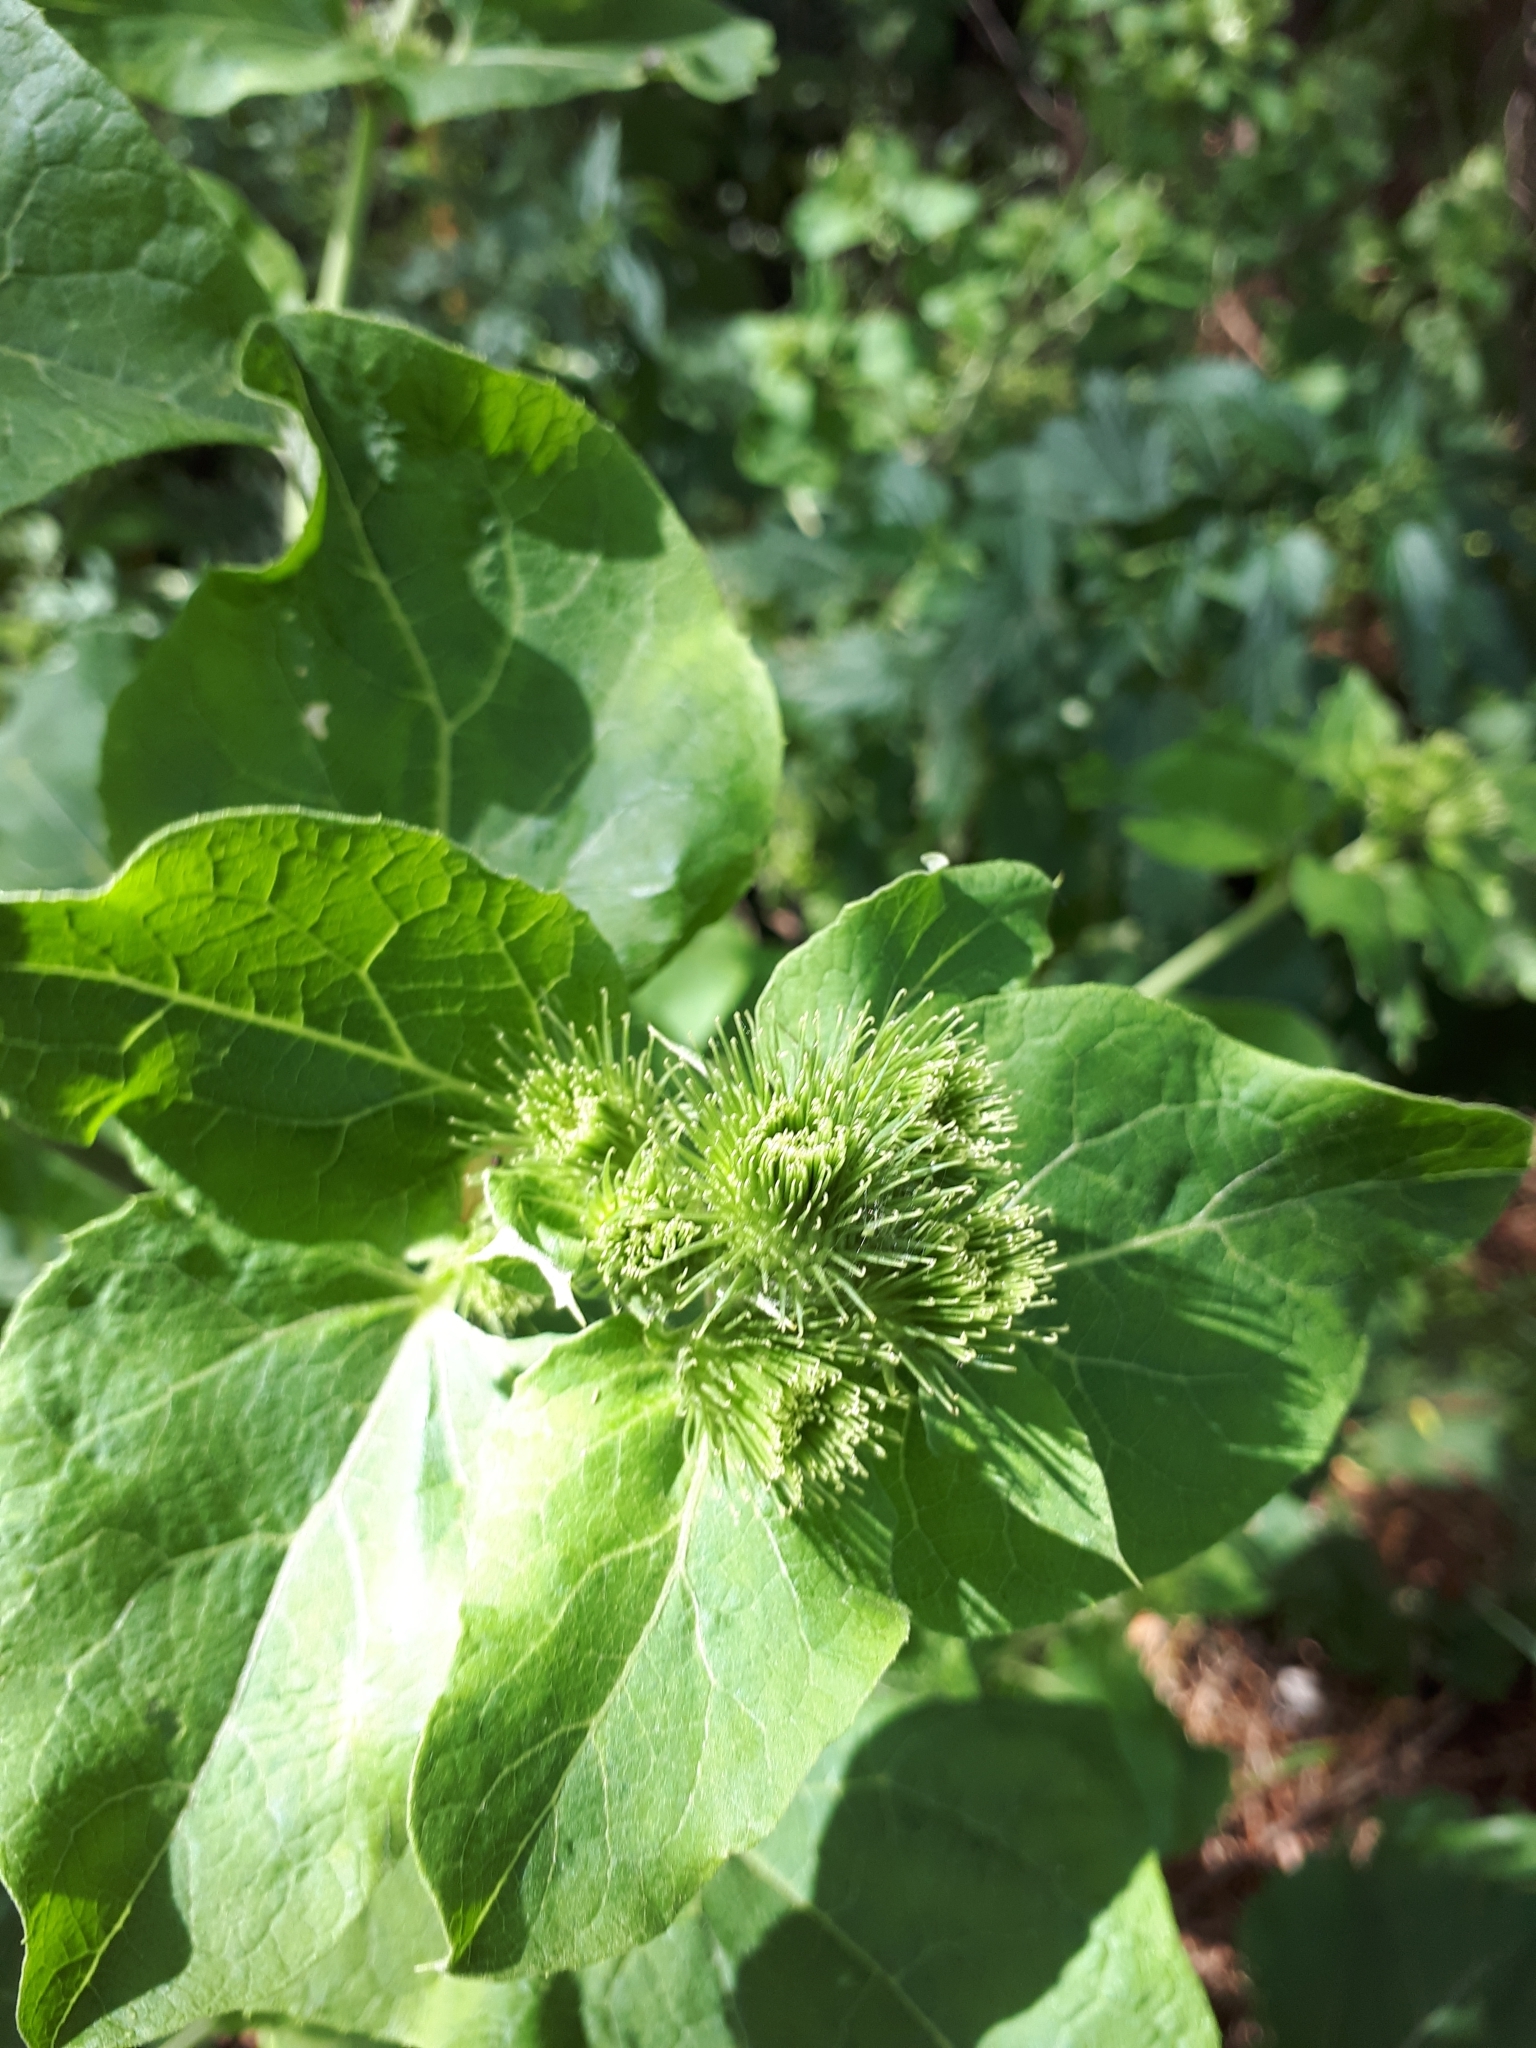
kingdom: Plantae
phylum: Tracheophyta
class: Magnoliopsida
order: Asterales
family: Asteraceae
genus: Arctium
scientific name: Arctium minus
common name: Lesser burdock
